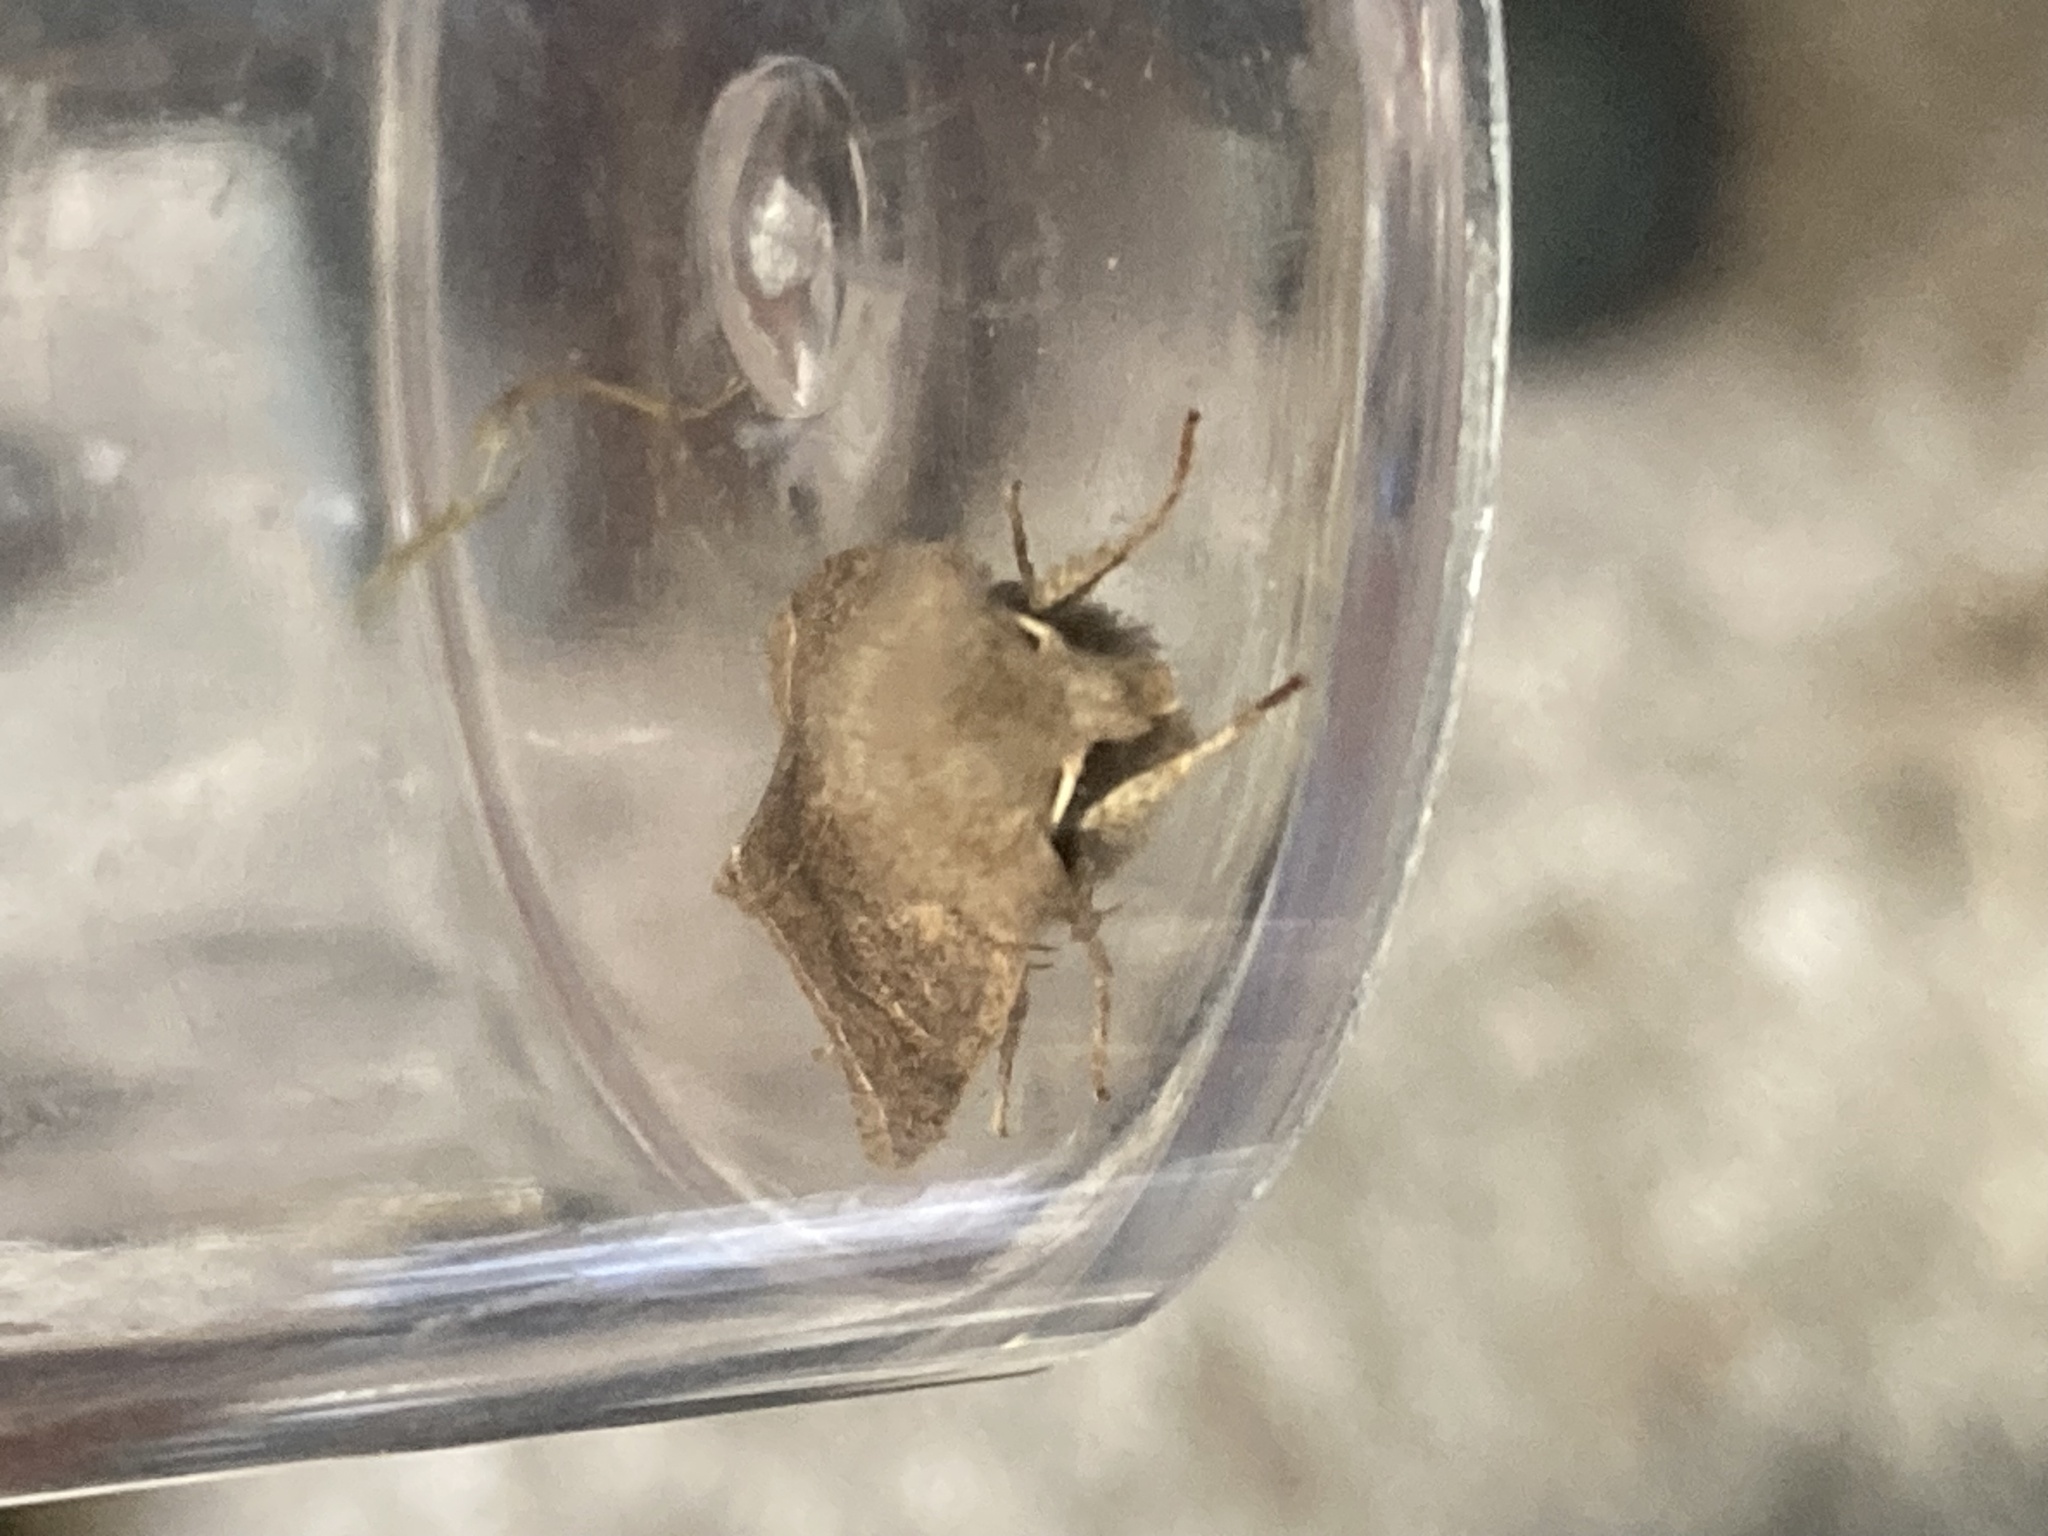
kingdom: Animalia
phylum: Arthropoda
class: Insecta
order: Lepidoptera
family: Noctuidae
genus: Orthosia
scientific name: Orthosia cerasi
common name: Common quaker
